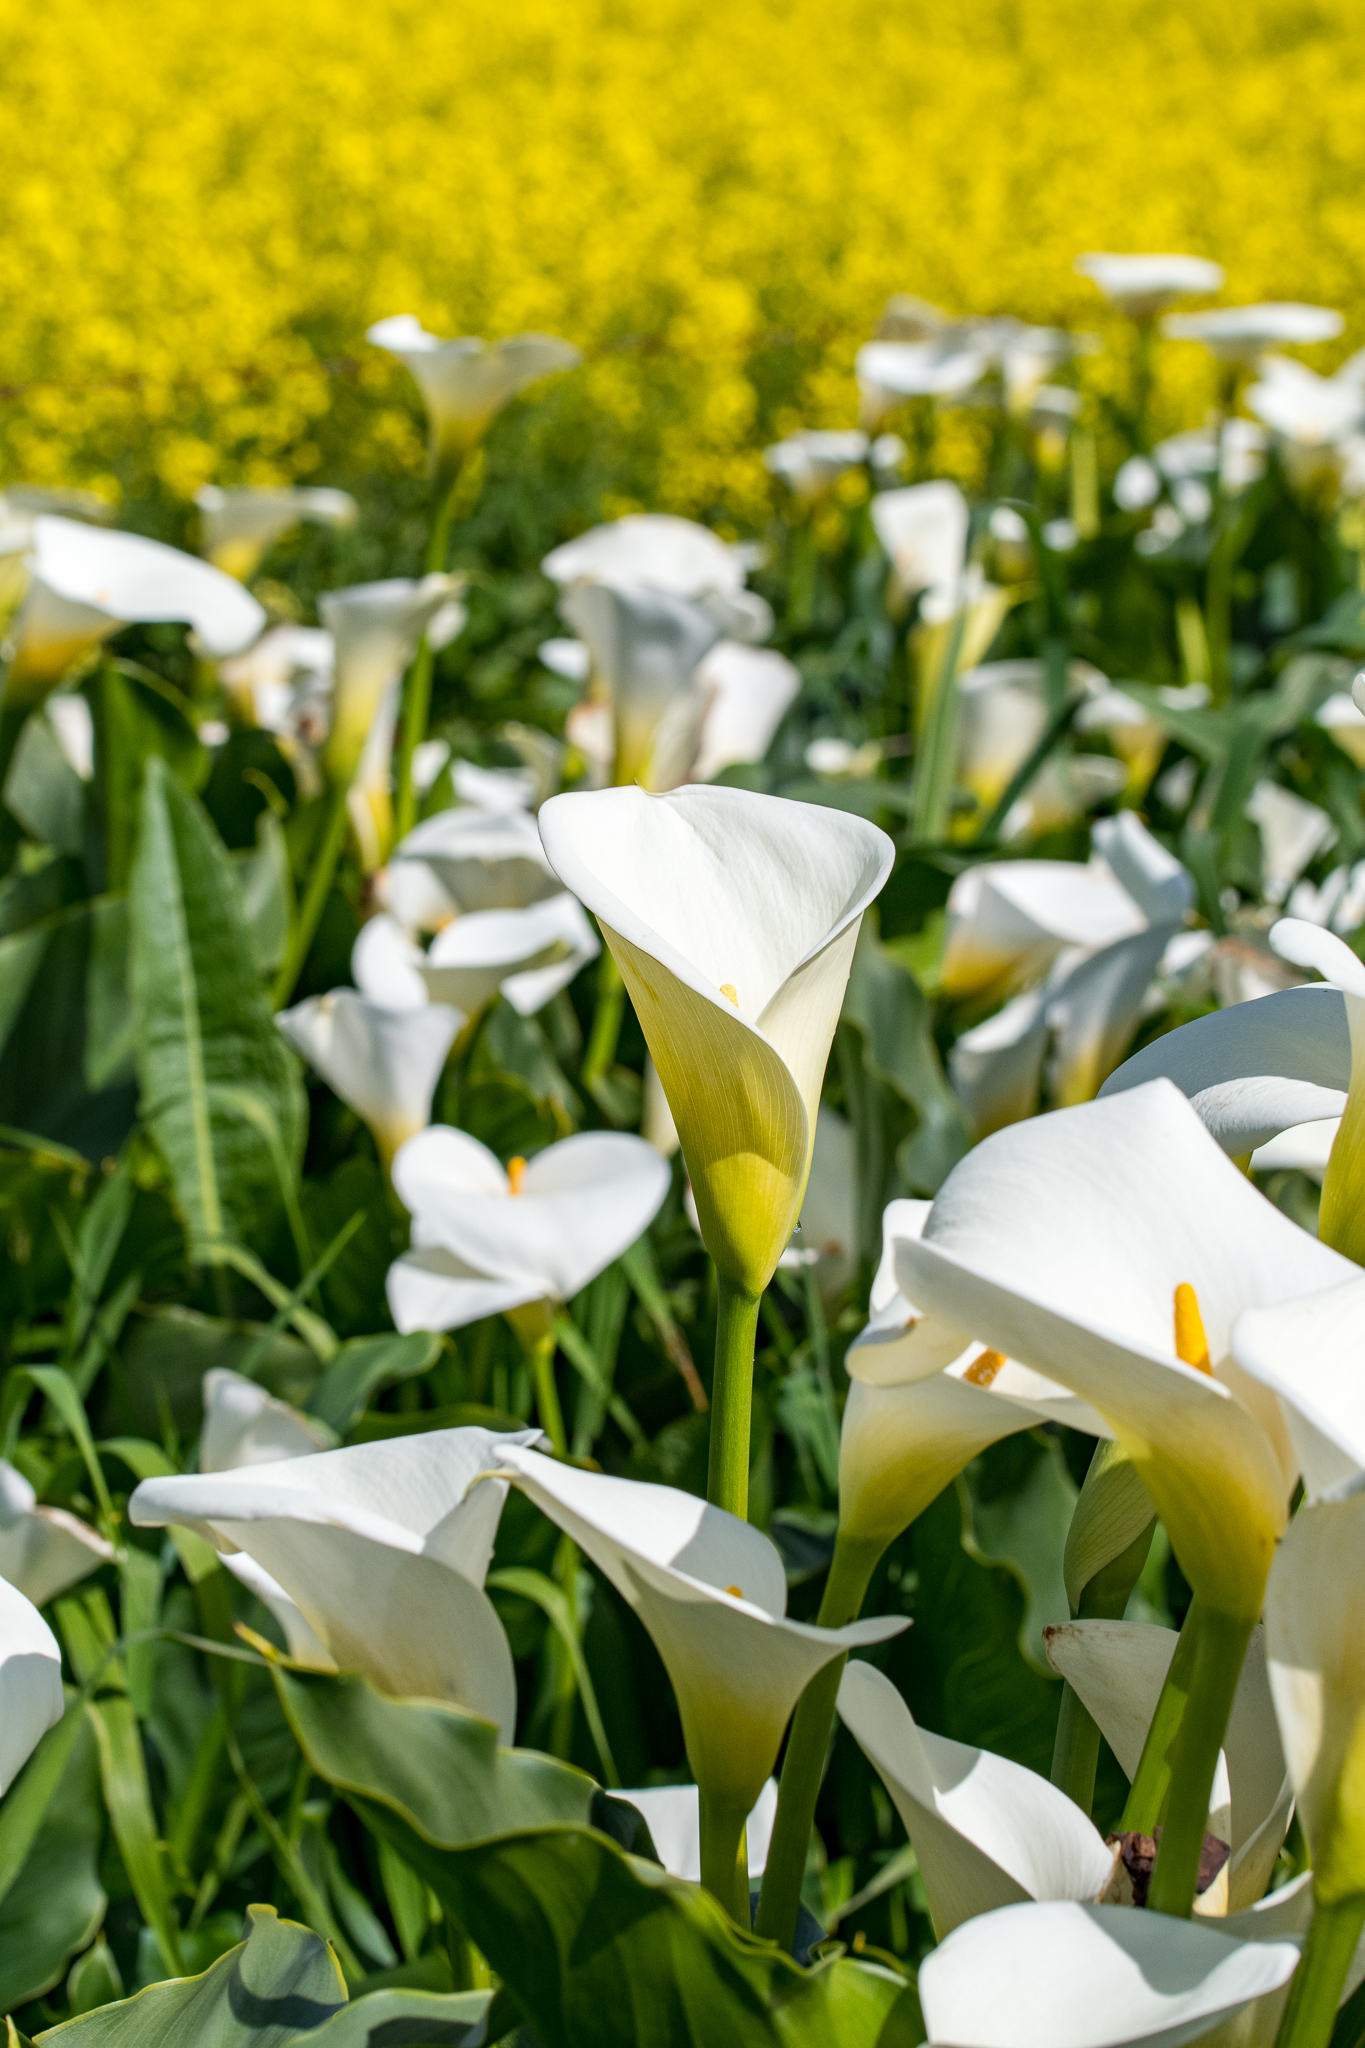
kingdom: Plantae
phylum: Tracheophyta
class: Liliopsida
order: Alismatales
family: Araceae
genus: Zantedeschia
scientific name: Zantedeschia aethiopica
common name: Altar-lily
